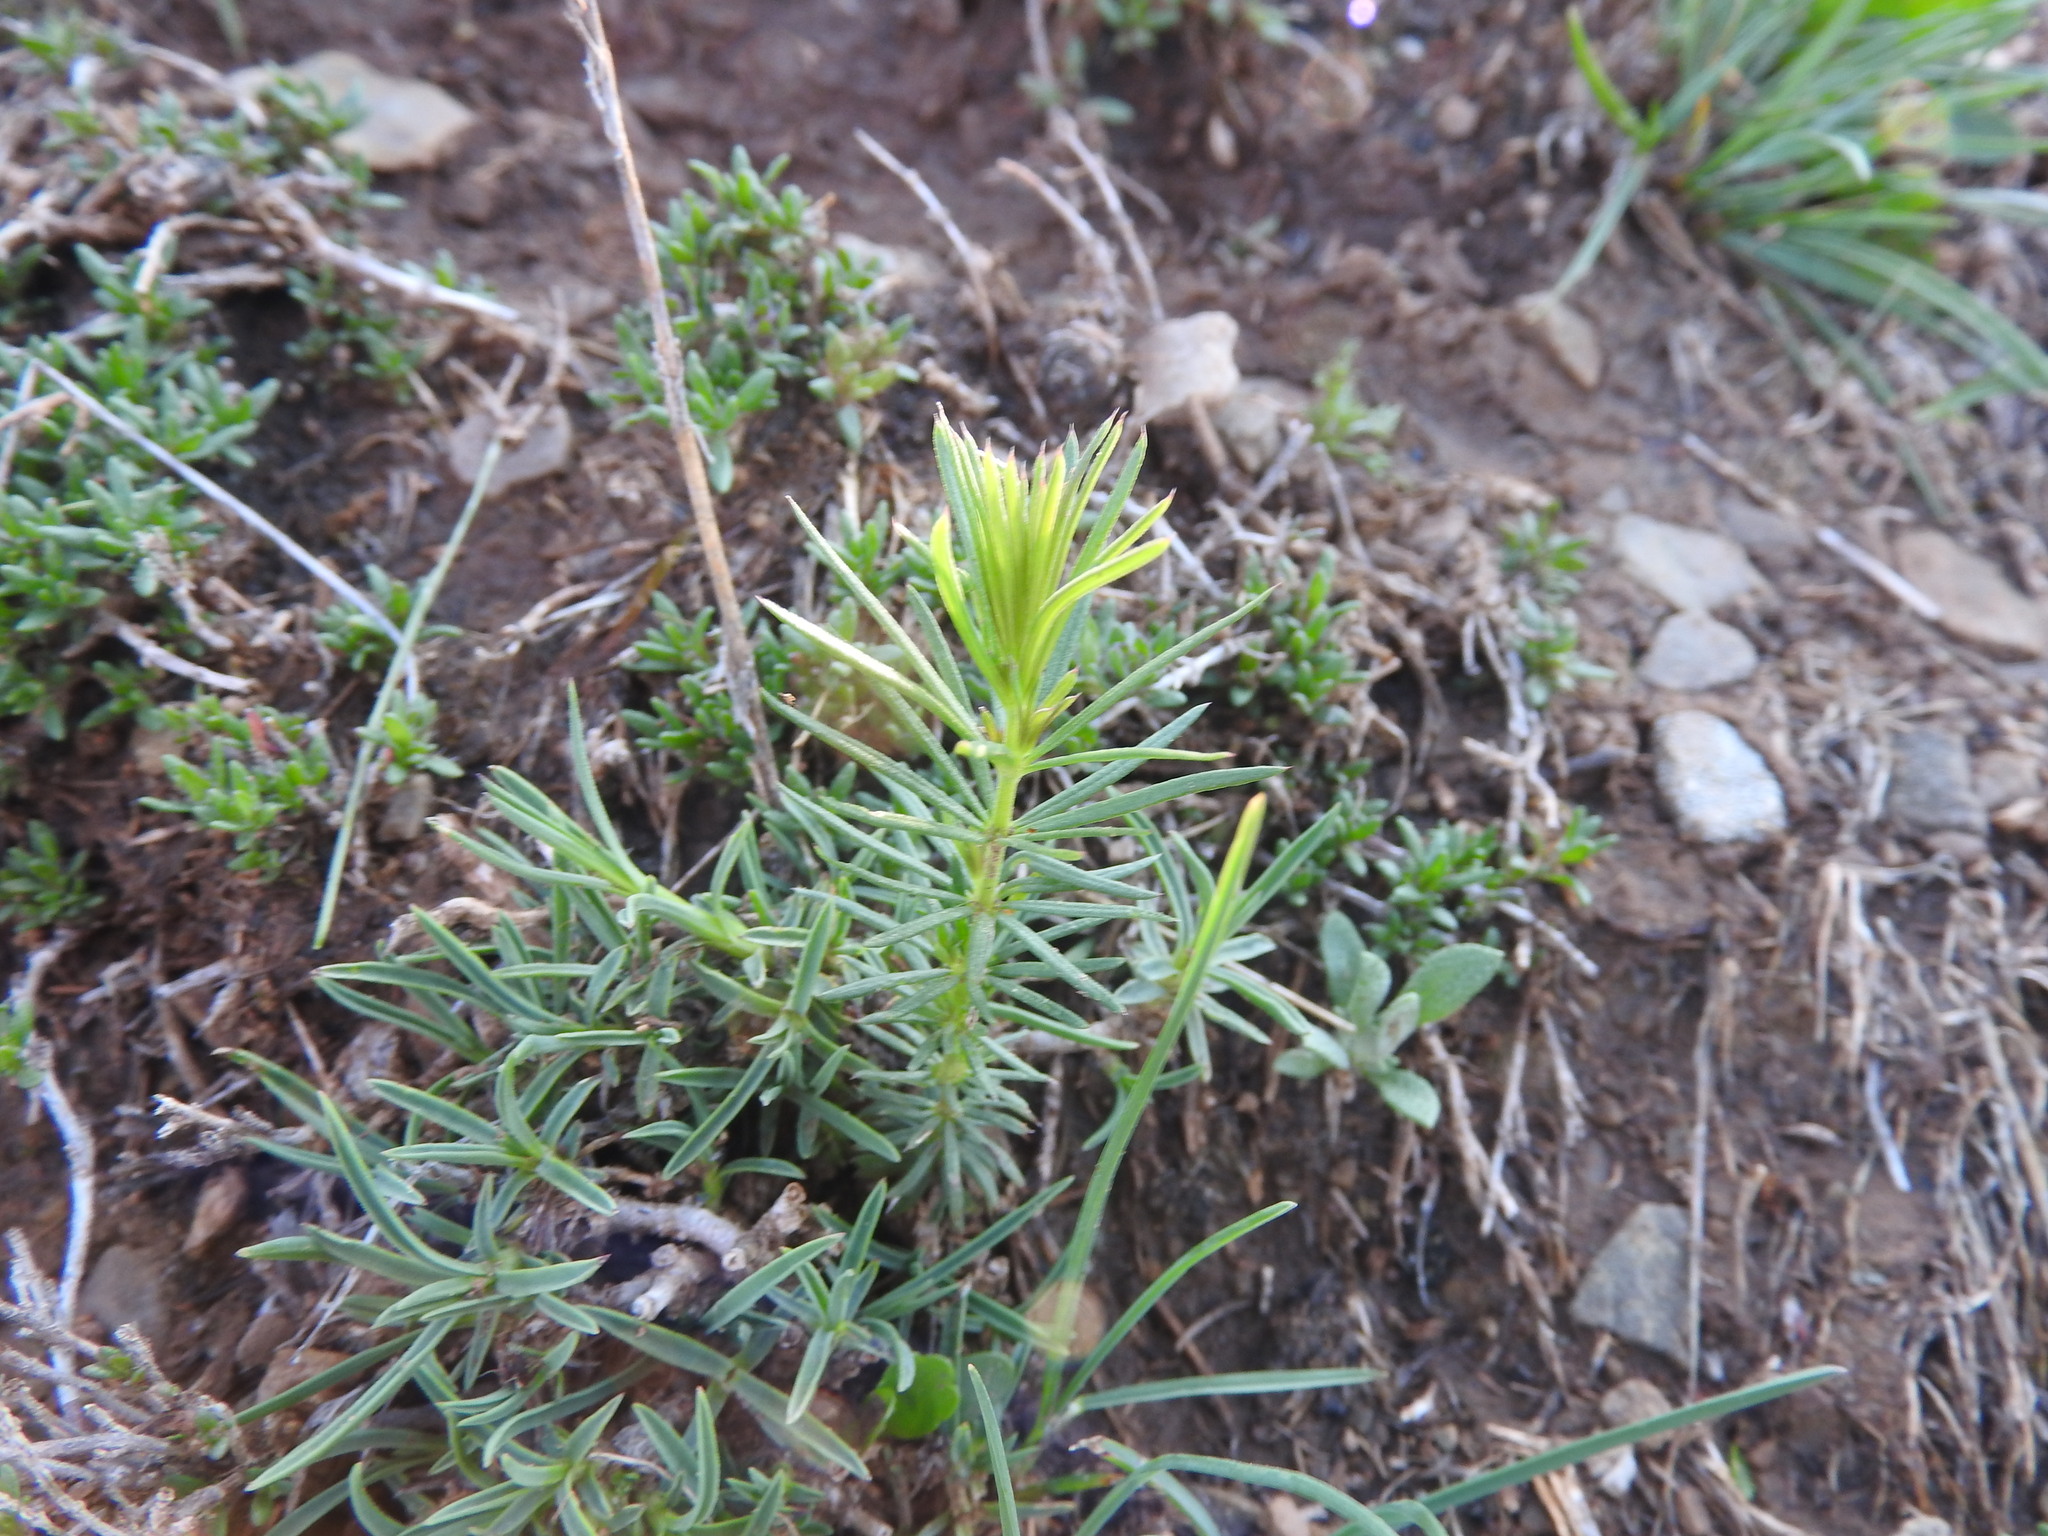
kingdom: Plantae
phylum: Tracheophyta
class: Magnoliopsida
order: Gentianales
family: Rubiaceae
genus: Galium
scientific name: Galium tunetanum
